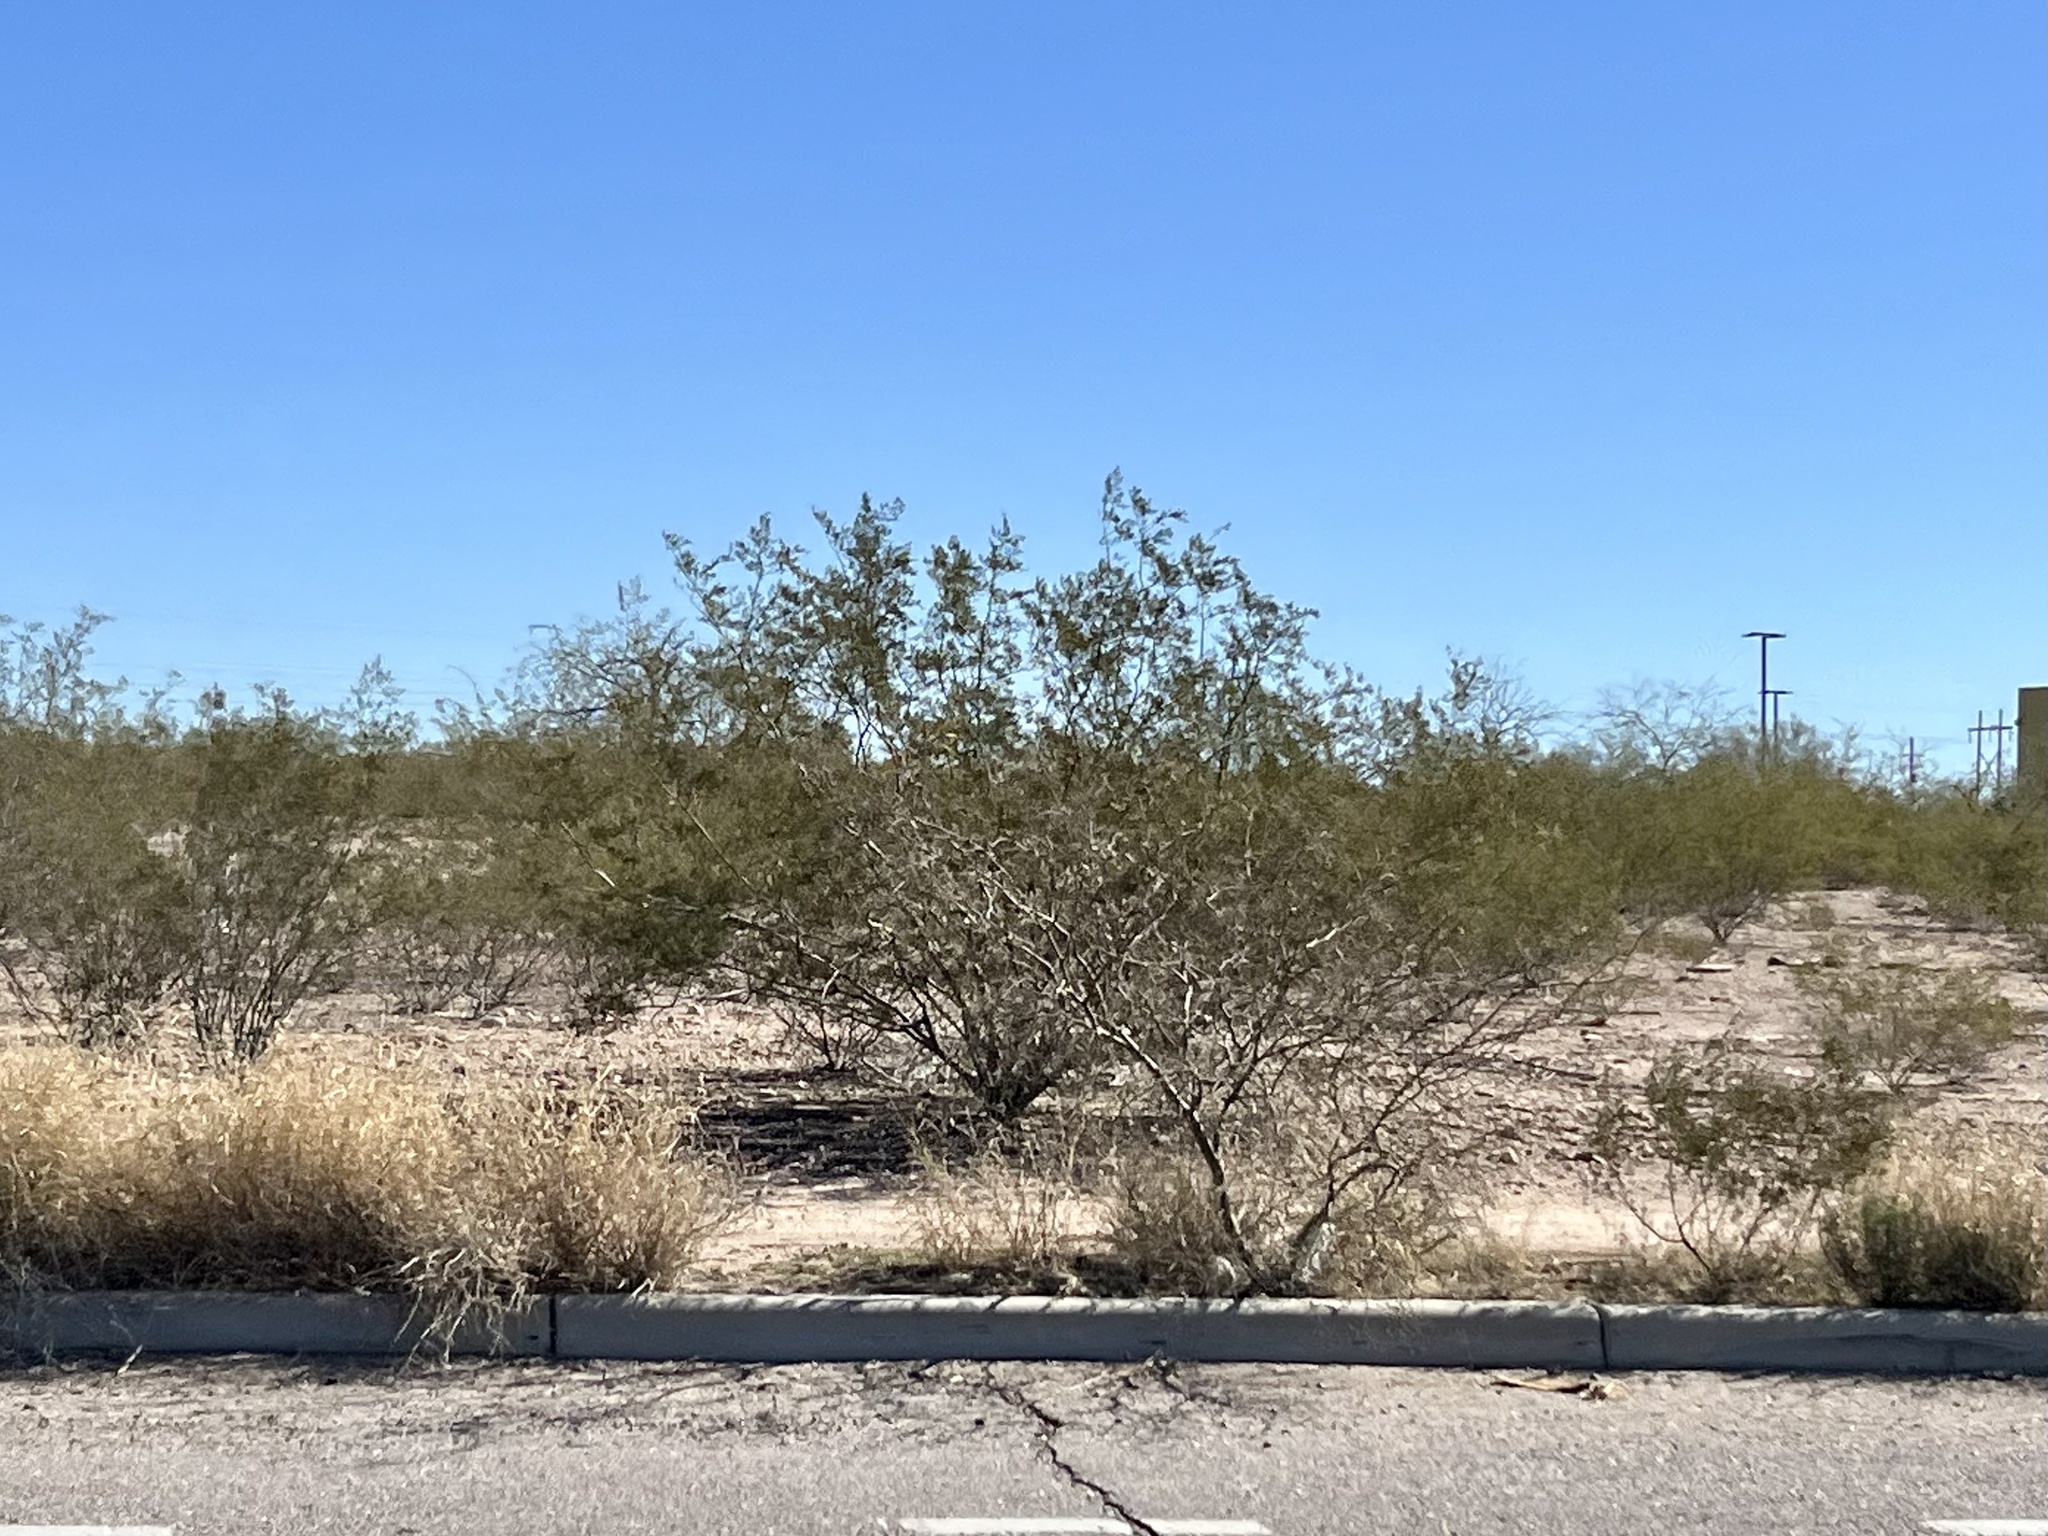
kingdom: Plantae
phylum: Tracheophyta
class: Magnoliopsida
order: Zygophyllales
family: Zygophyllaceae
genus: Larrea
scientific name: Larrea tridentata
